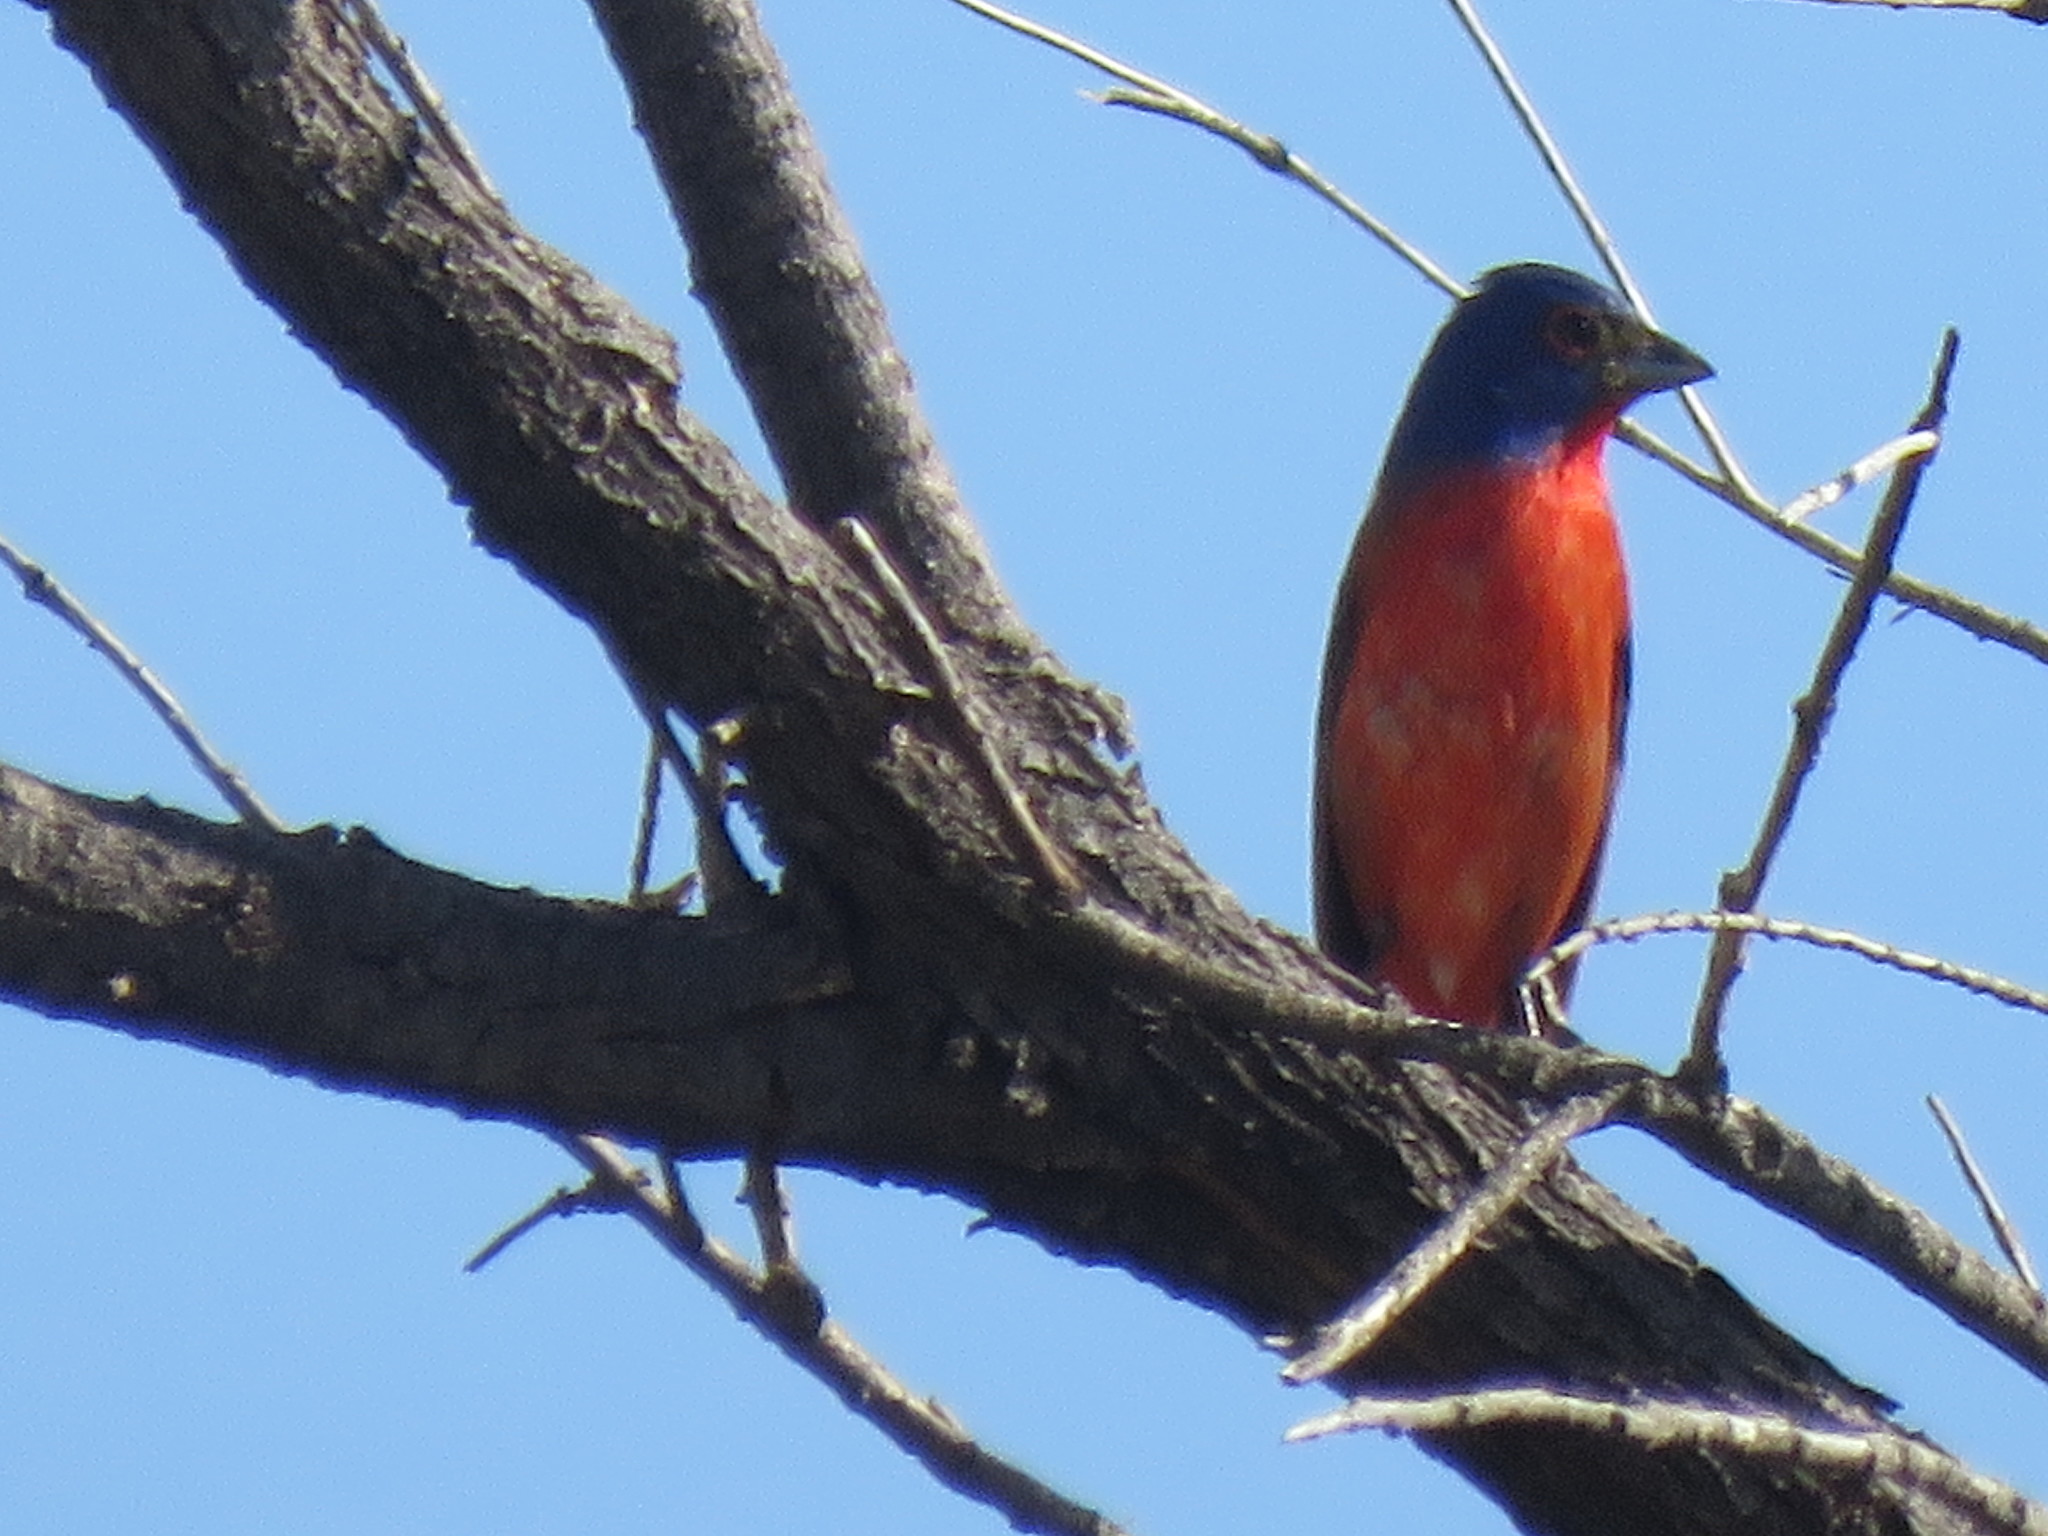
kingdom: Animalia
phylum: Chordata
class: Aves
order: Passeriformes
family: Cardinalidae
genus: Passerina
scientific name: Passerina ciris
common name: Painted bunting
